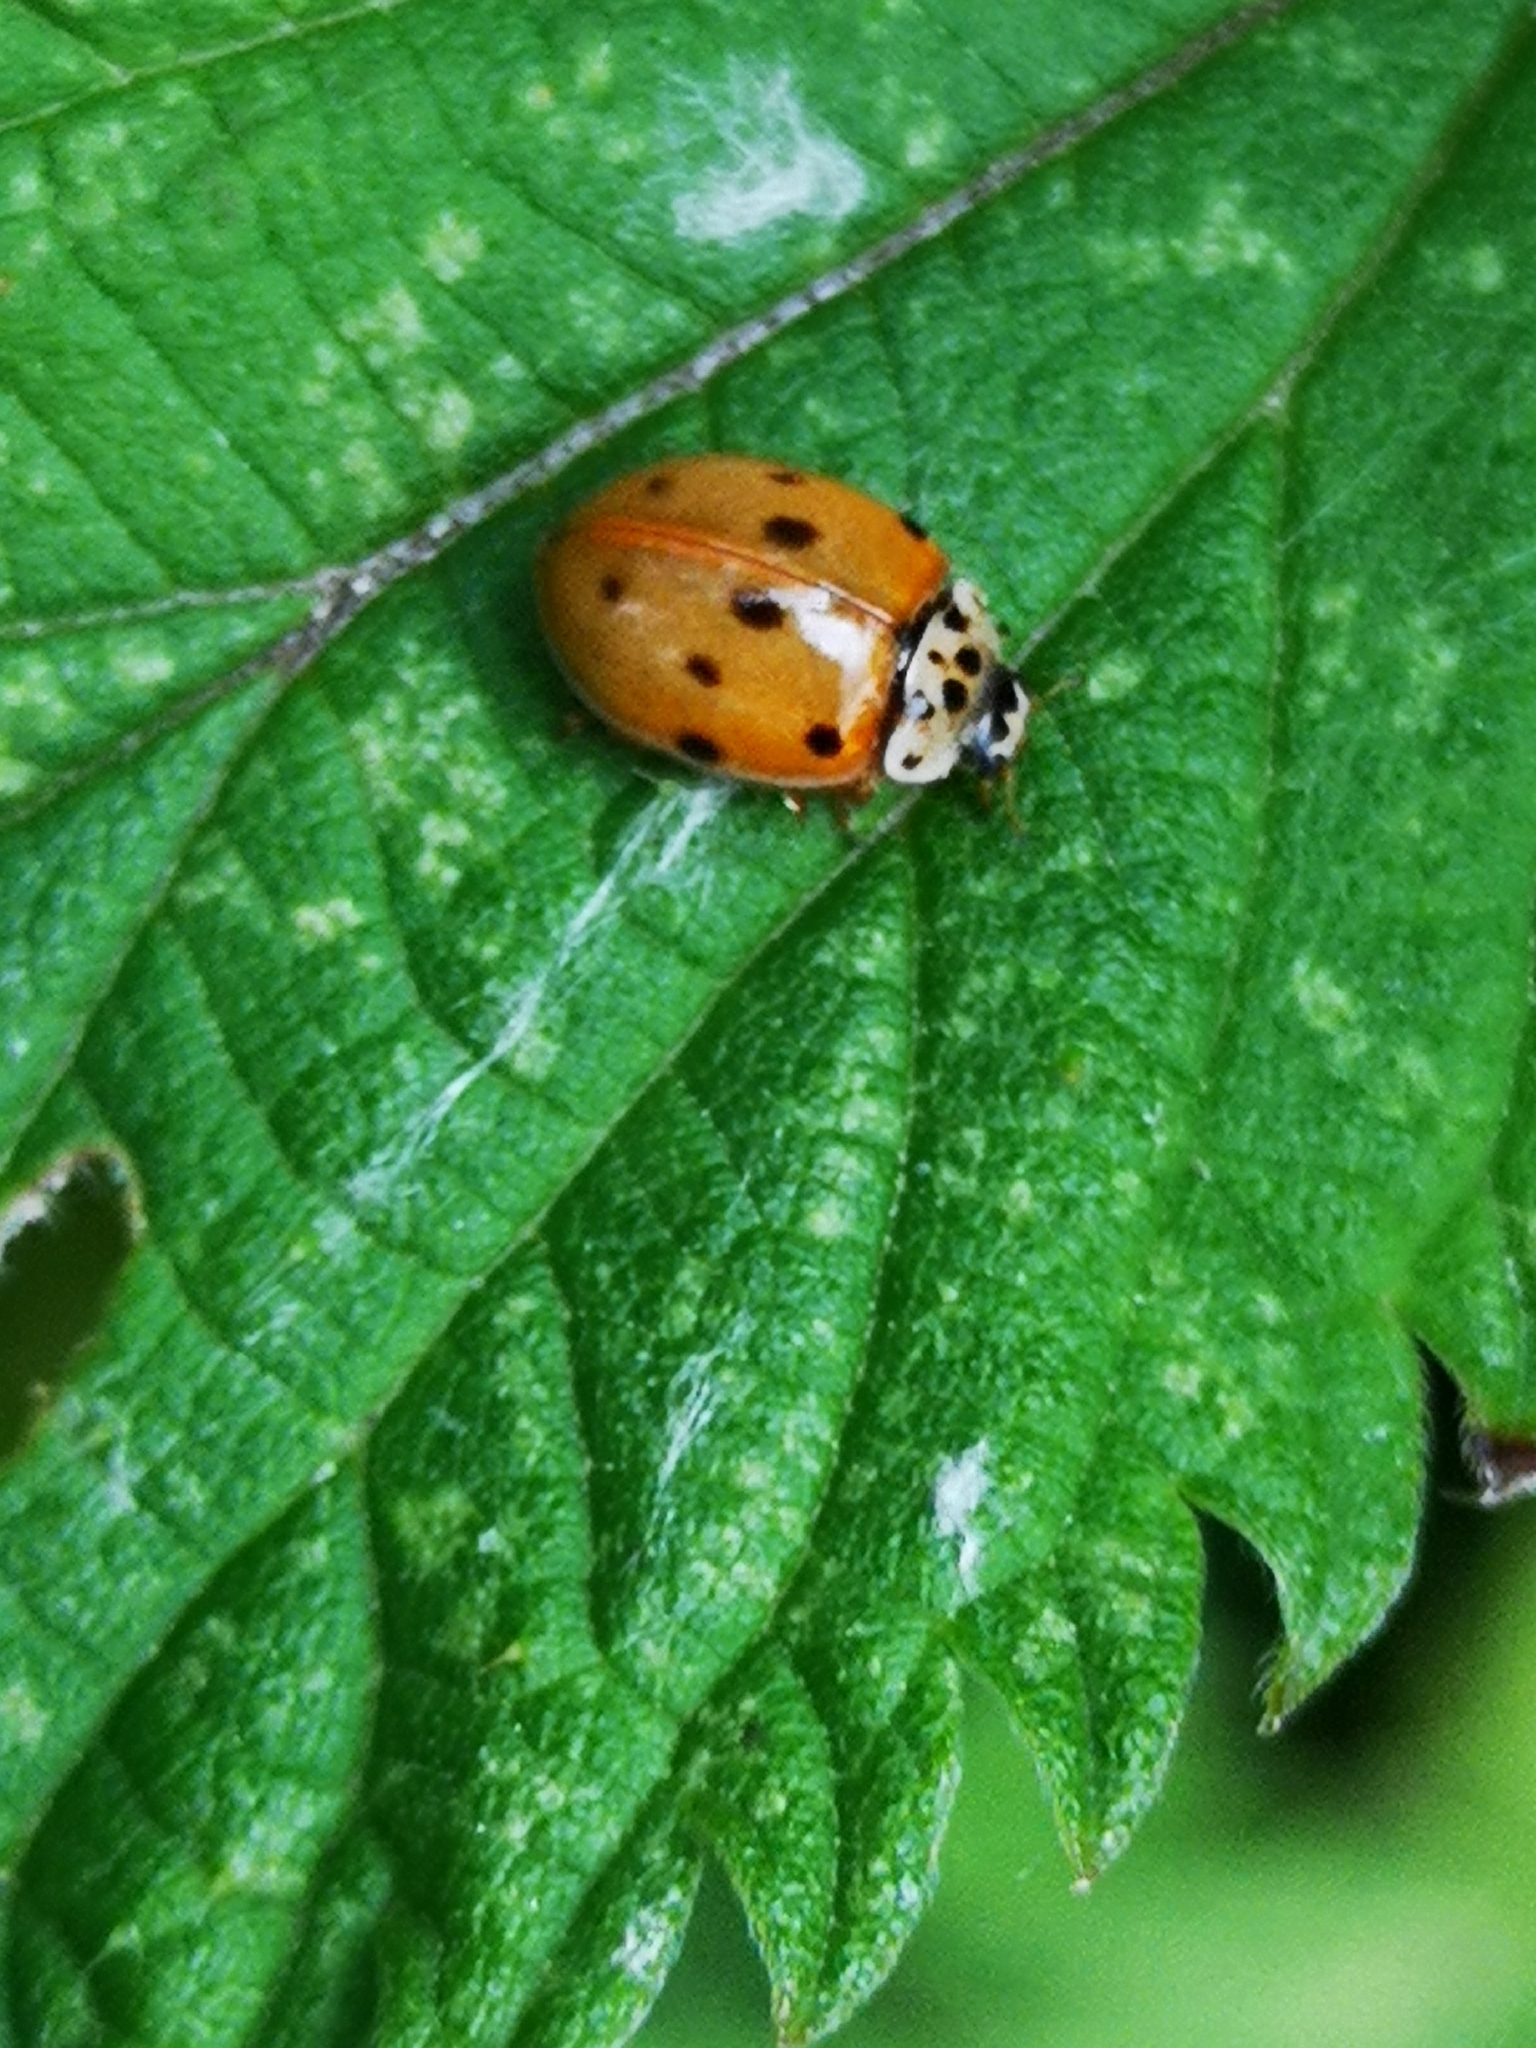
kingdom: Animalia
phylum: Arthropoda
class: Insecta
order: Coleoptera
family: Coccinellidae
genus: Adalia
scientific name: Adalia decempunctata
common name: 10-spot ladybird
